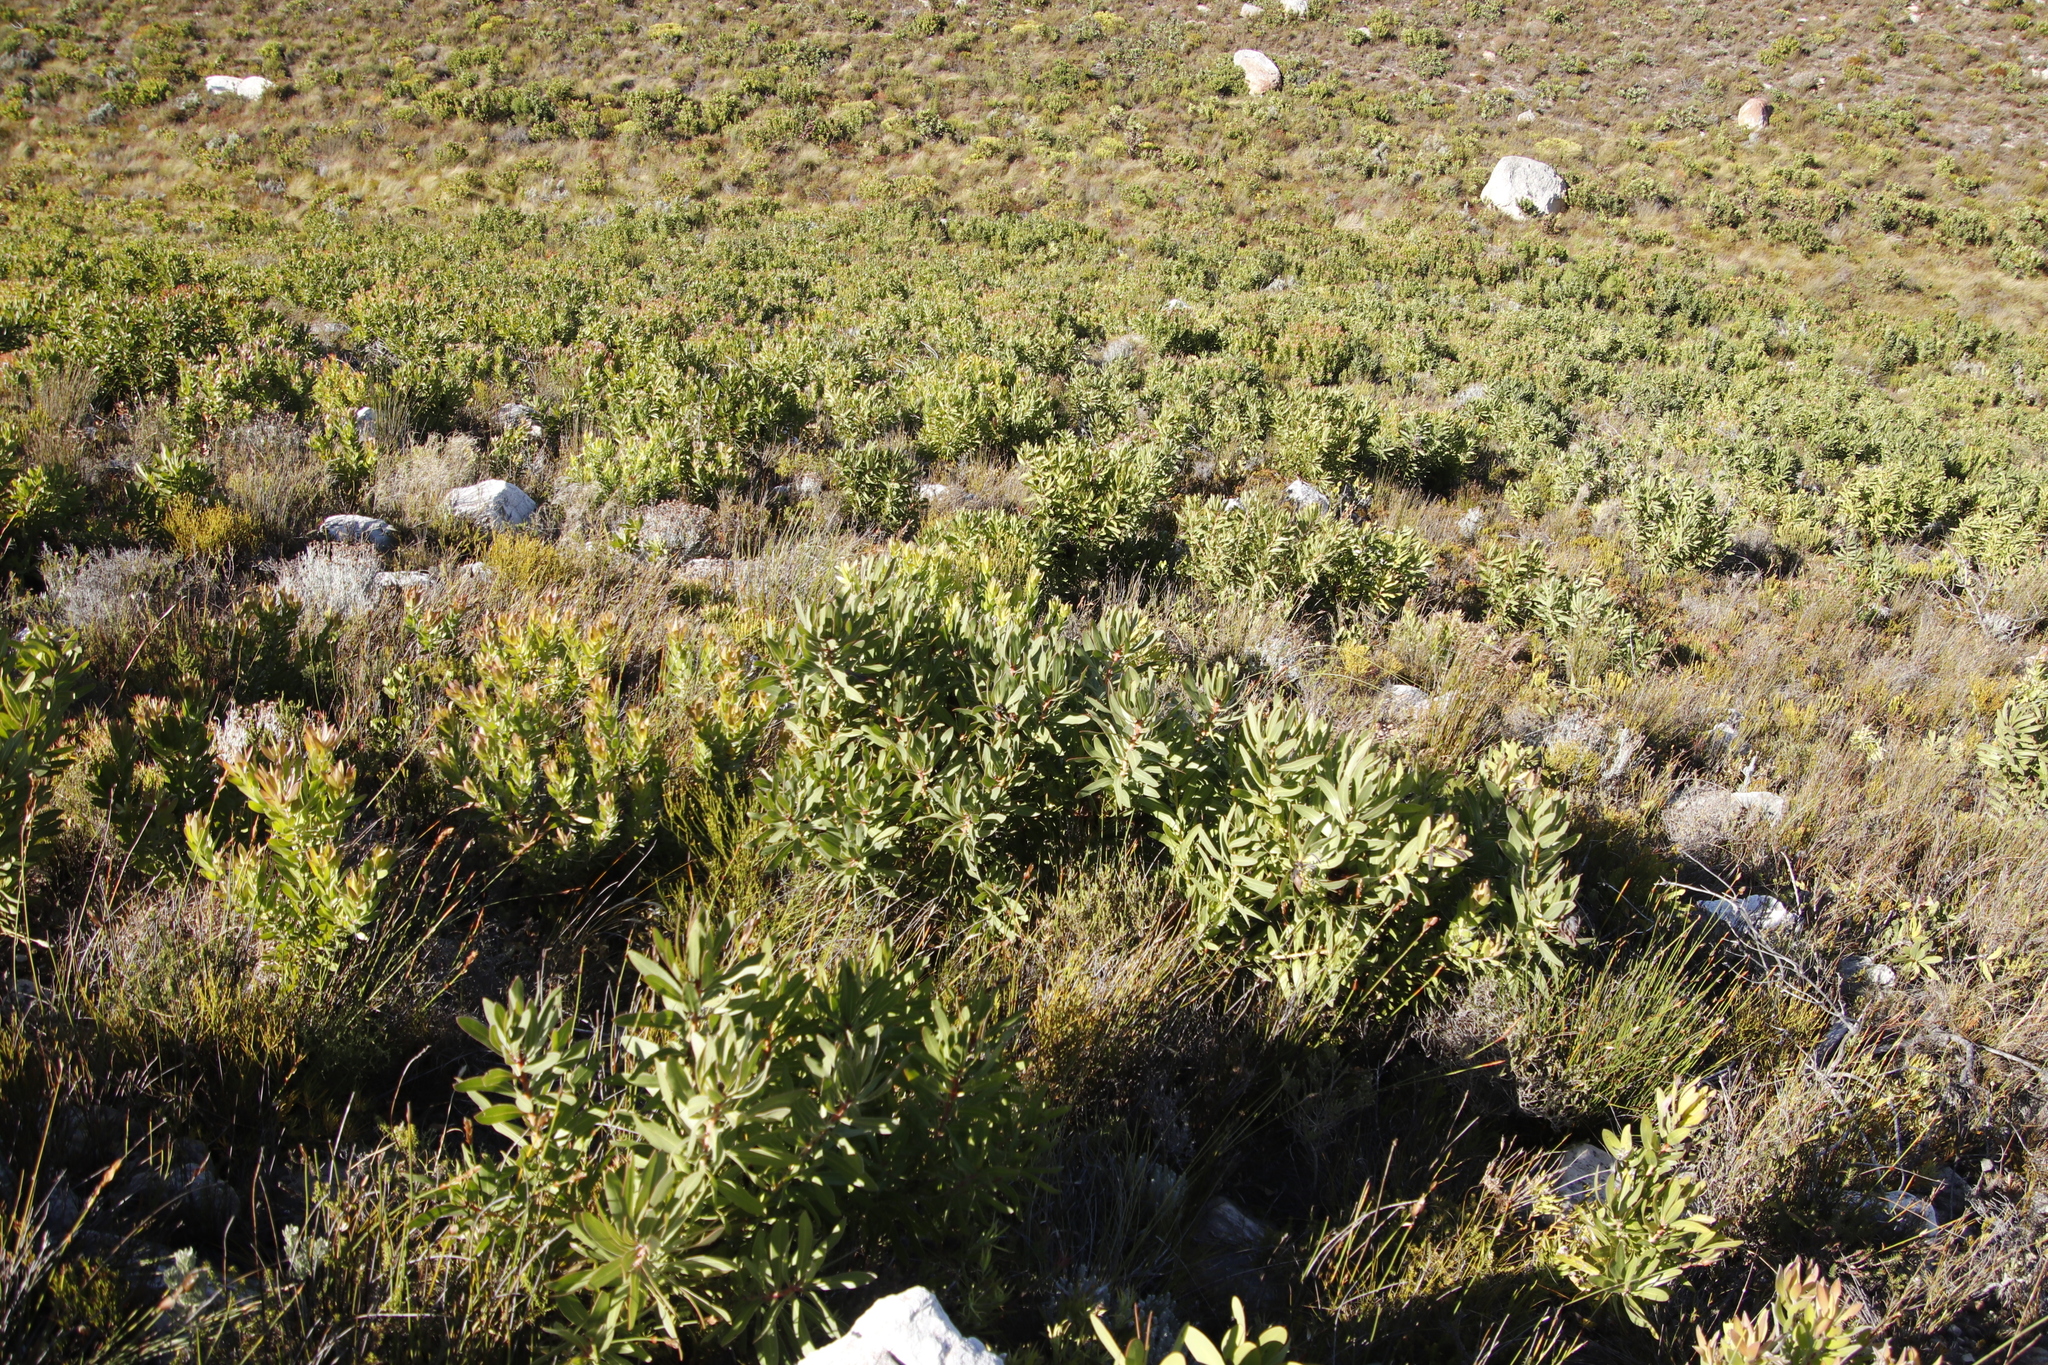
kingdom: Plantae
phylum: Tracheophyta
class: Magnoliopsida
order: Proteales
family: Proteaceae
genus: Protea
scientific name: Protea lepidocarpodendron
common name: Black-bearded protea
